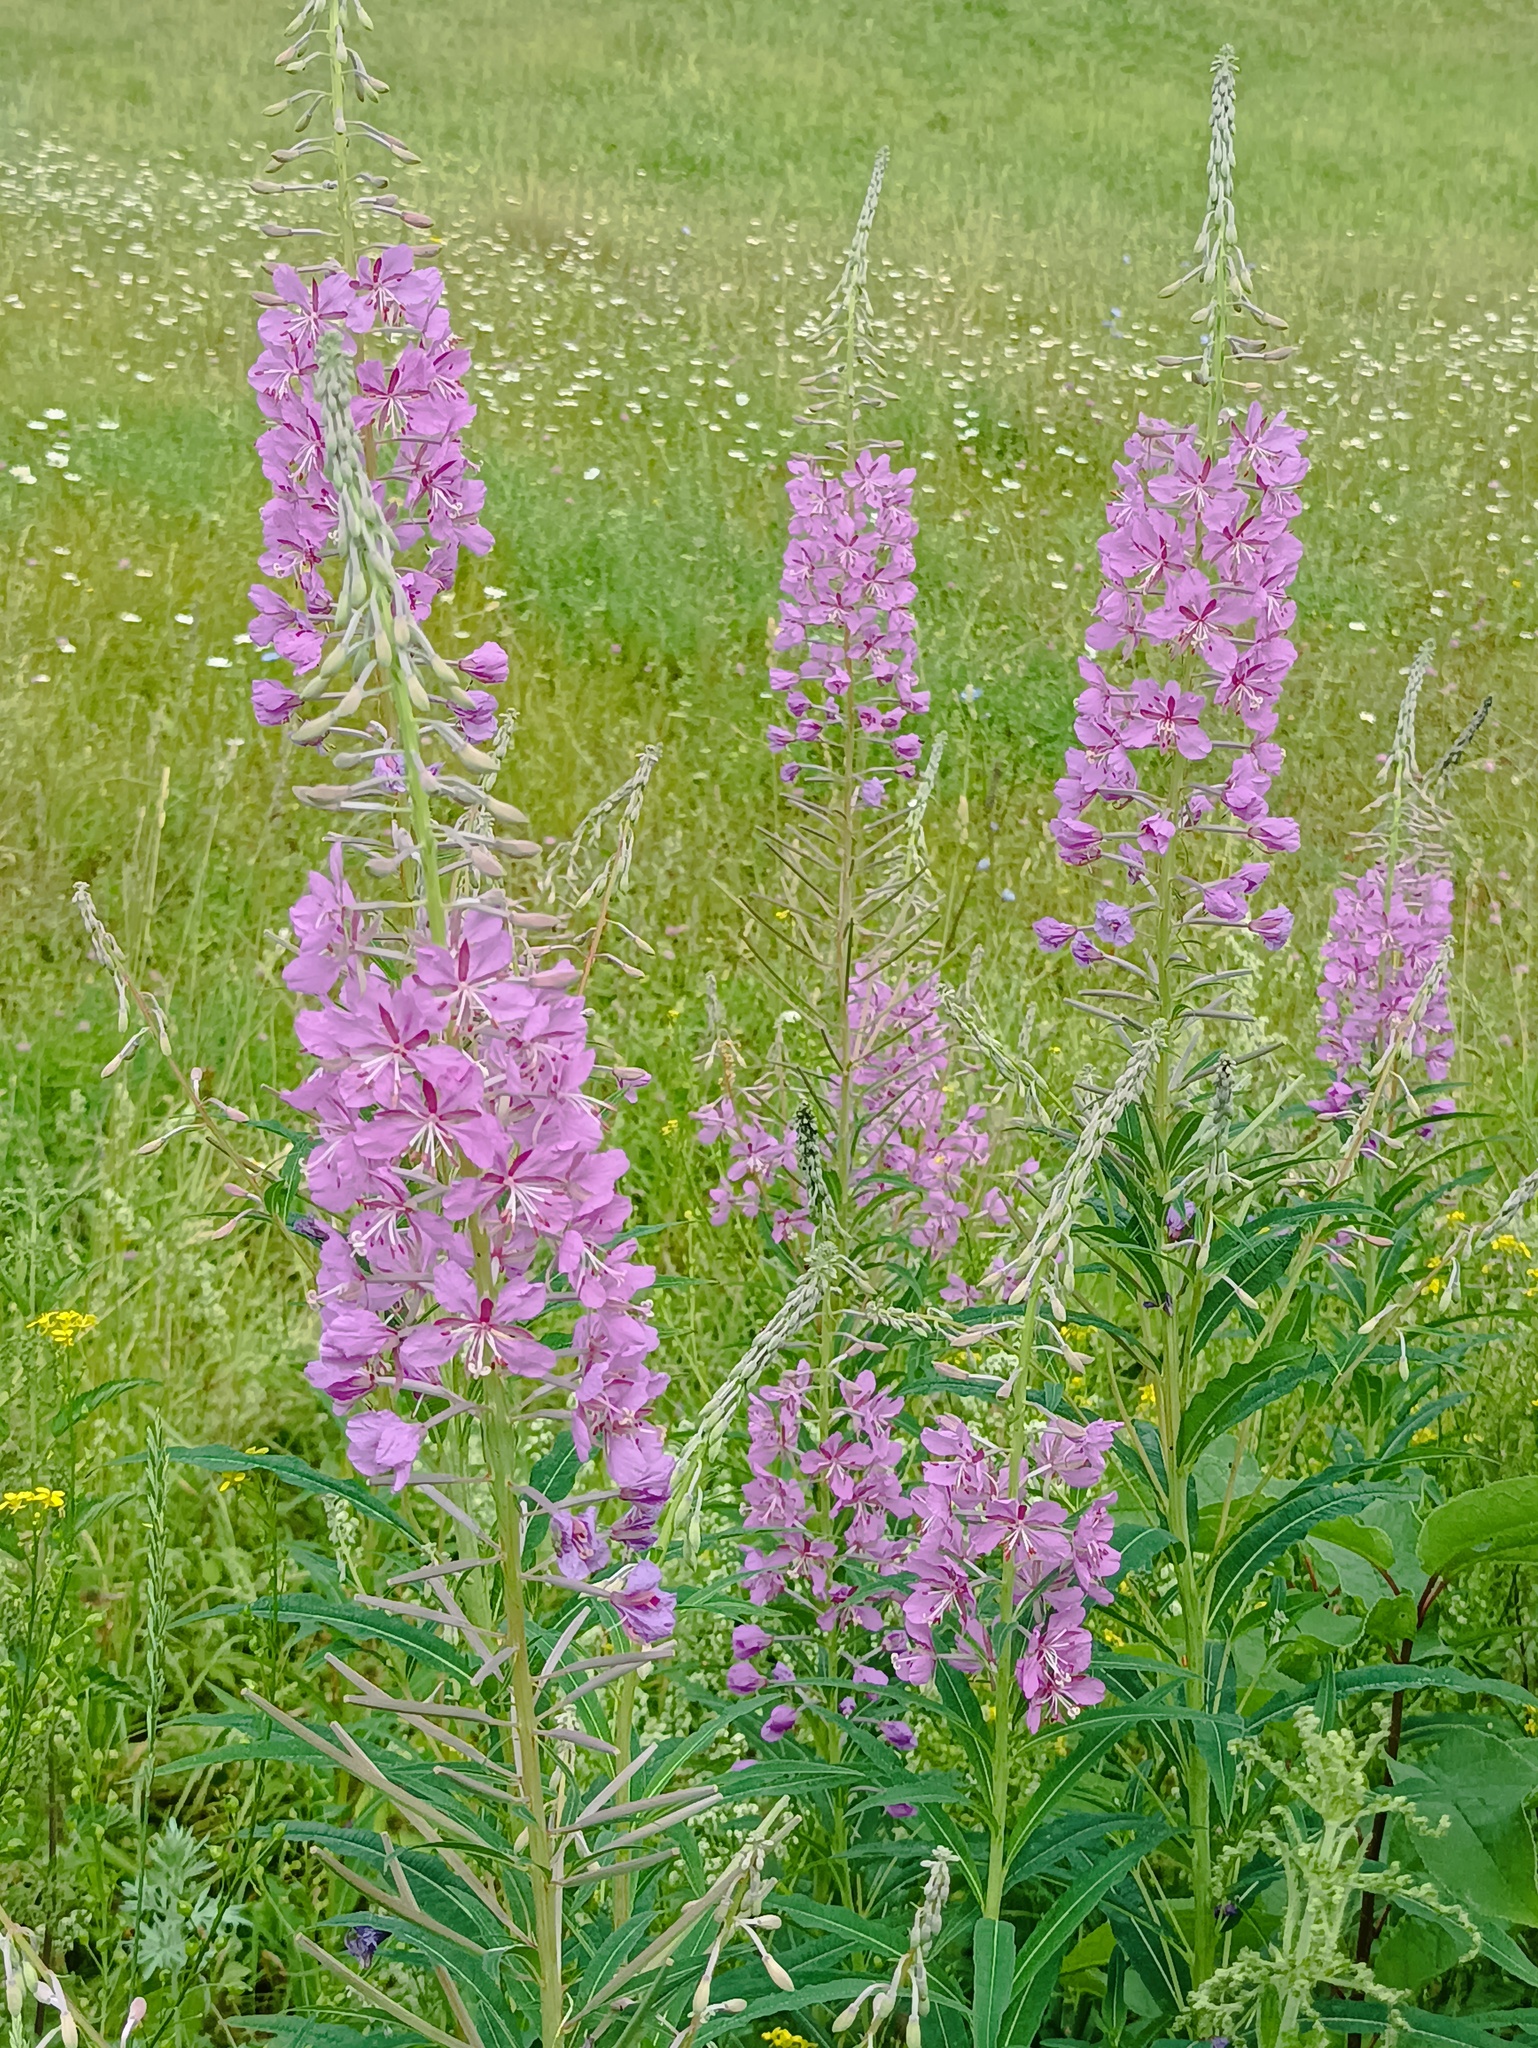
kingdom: Plantae
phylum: Tracheophyta
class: Magnoliopsida
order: Myrtales
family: Onagraceae
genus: Chamaenerion
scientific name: Chamaenerion angustifolium
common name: Fireweed
